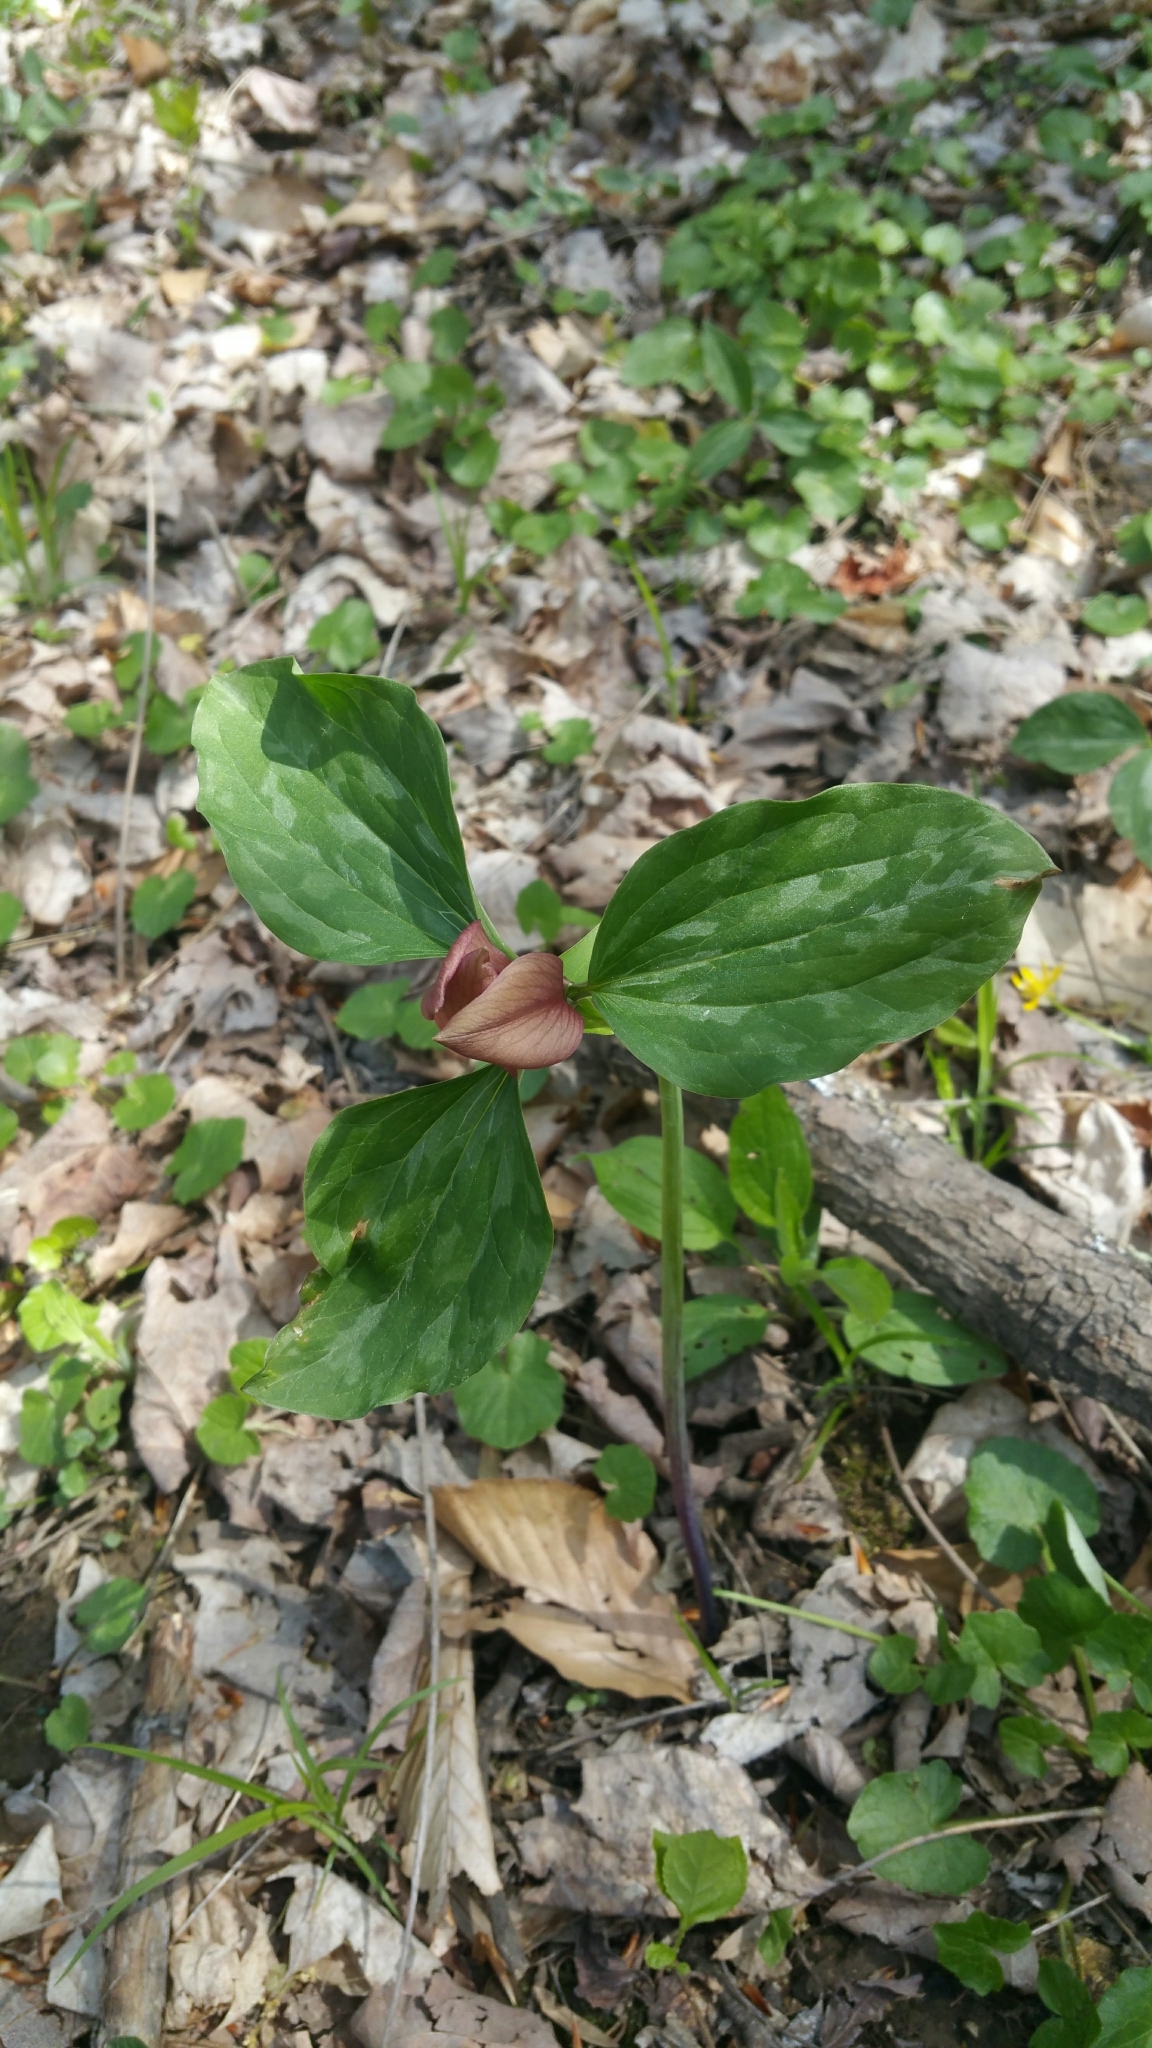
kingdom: Plantae
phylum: Tracheophyta
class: Liliopsida
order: Liliales
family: Melanthiaceae
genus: Trillium
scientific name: Trillium recurvatum
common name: Bloody butcher
